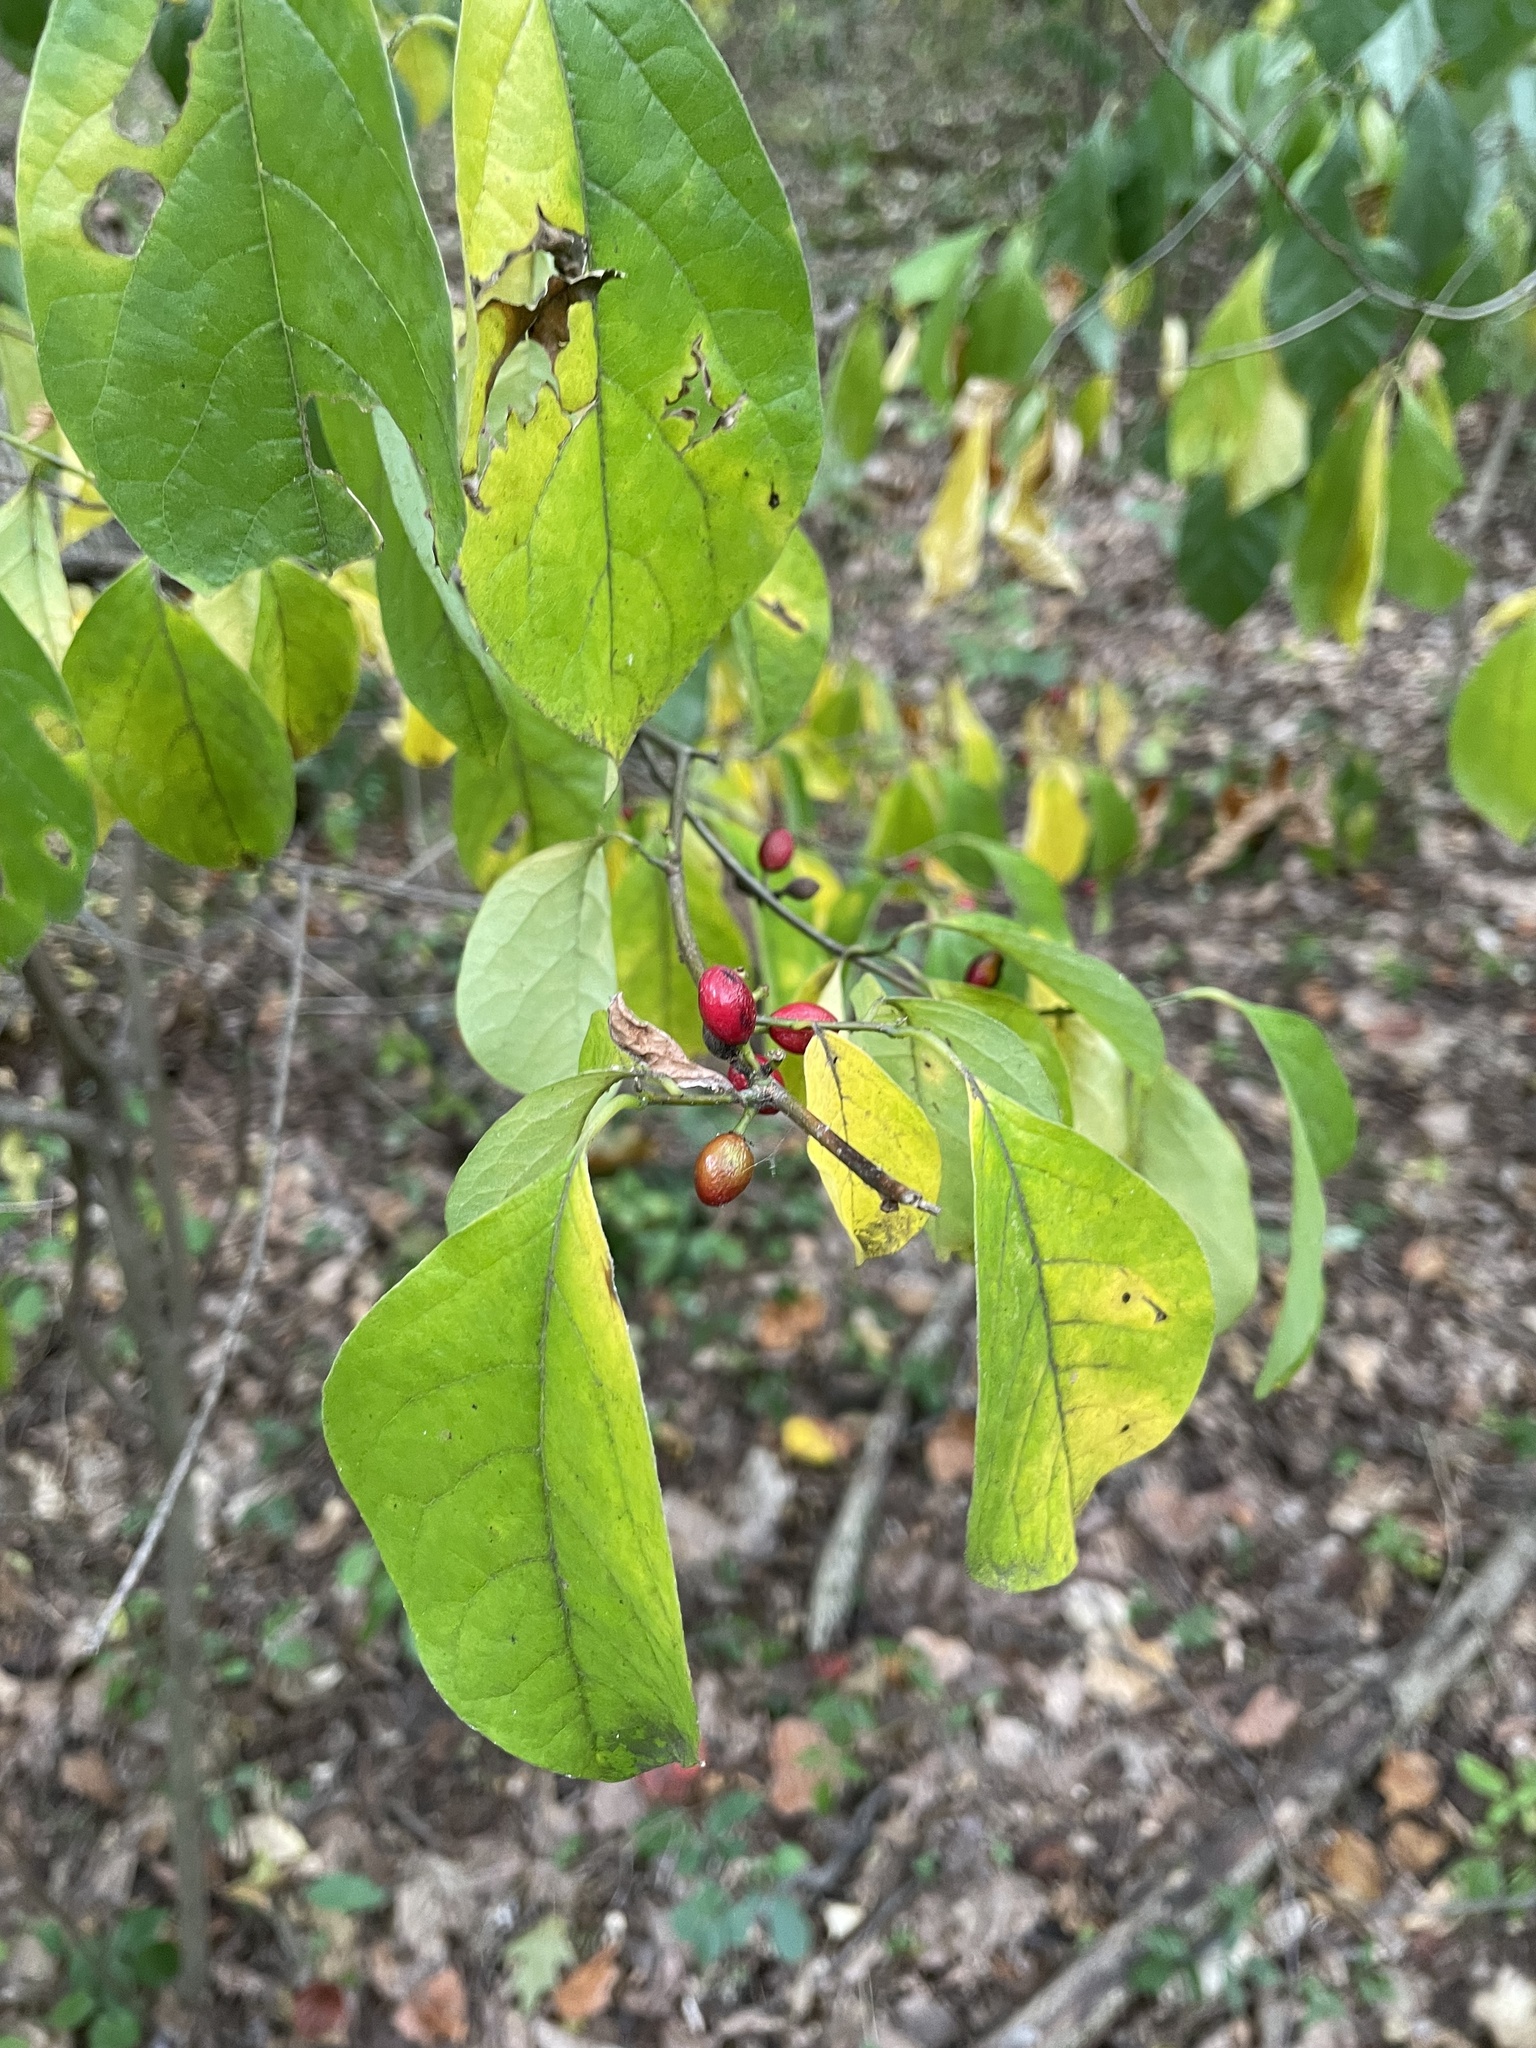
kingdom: Plantae
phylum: Tracheophyta
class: Magnoliopsida
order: Laurales
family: Lauraceae
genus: Lindera
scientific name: Lindera benzoin
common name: Spicebush
